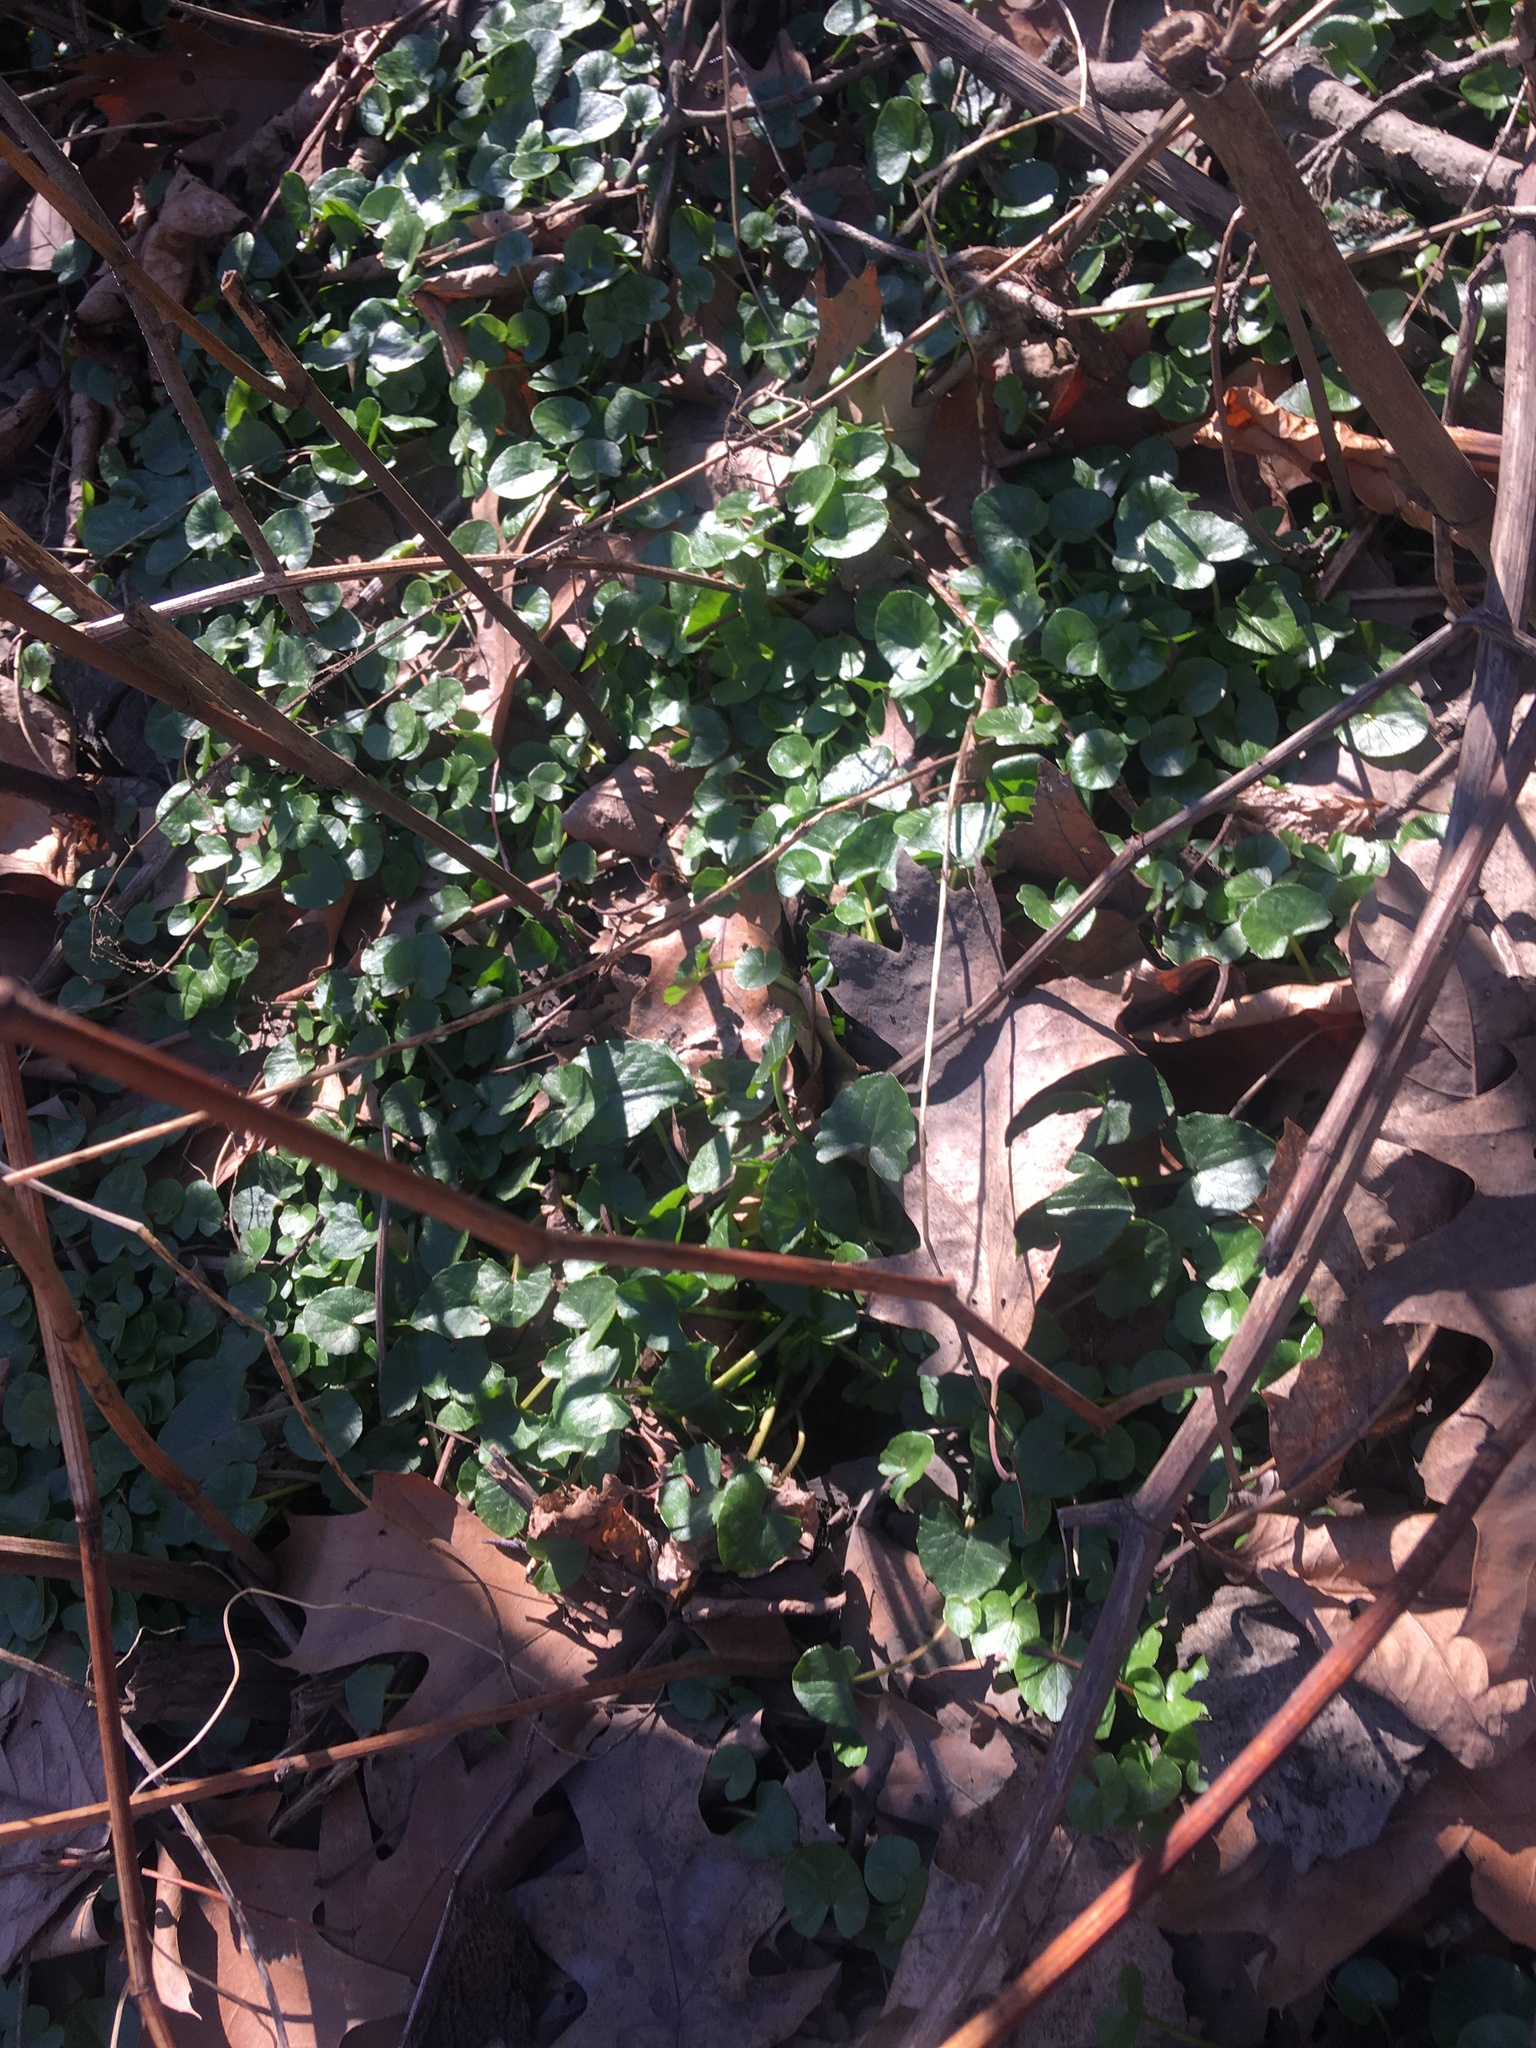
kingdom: Plantae
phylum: Tracheophyta
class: Magnoliopsida
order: Ranunculales
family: Ranunculaceae
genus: Ficaria
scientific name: Ficaria verna
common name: Lesser celandine
